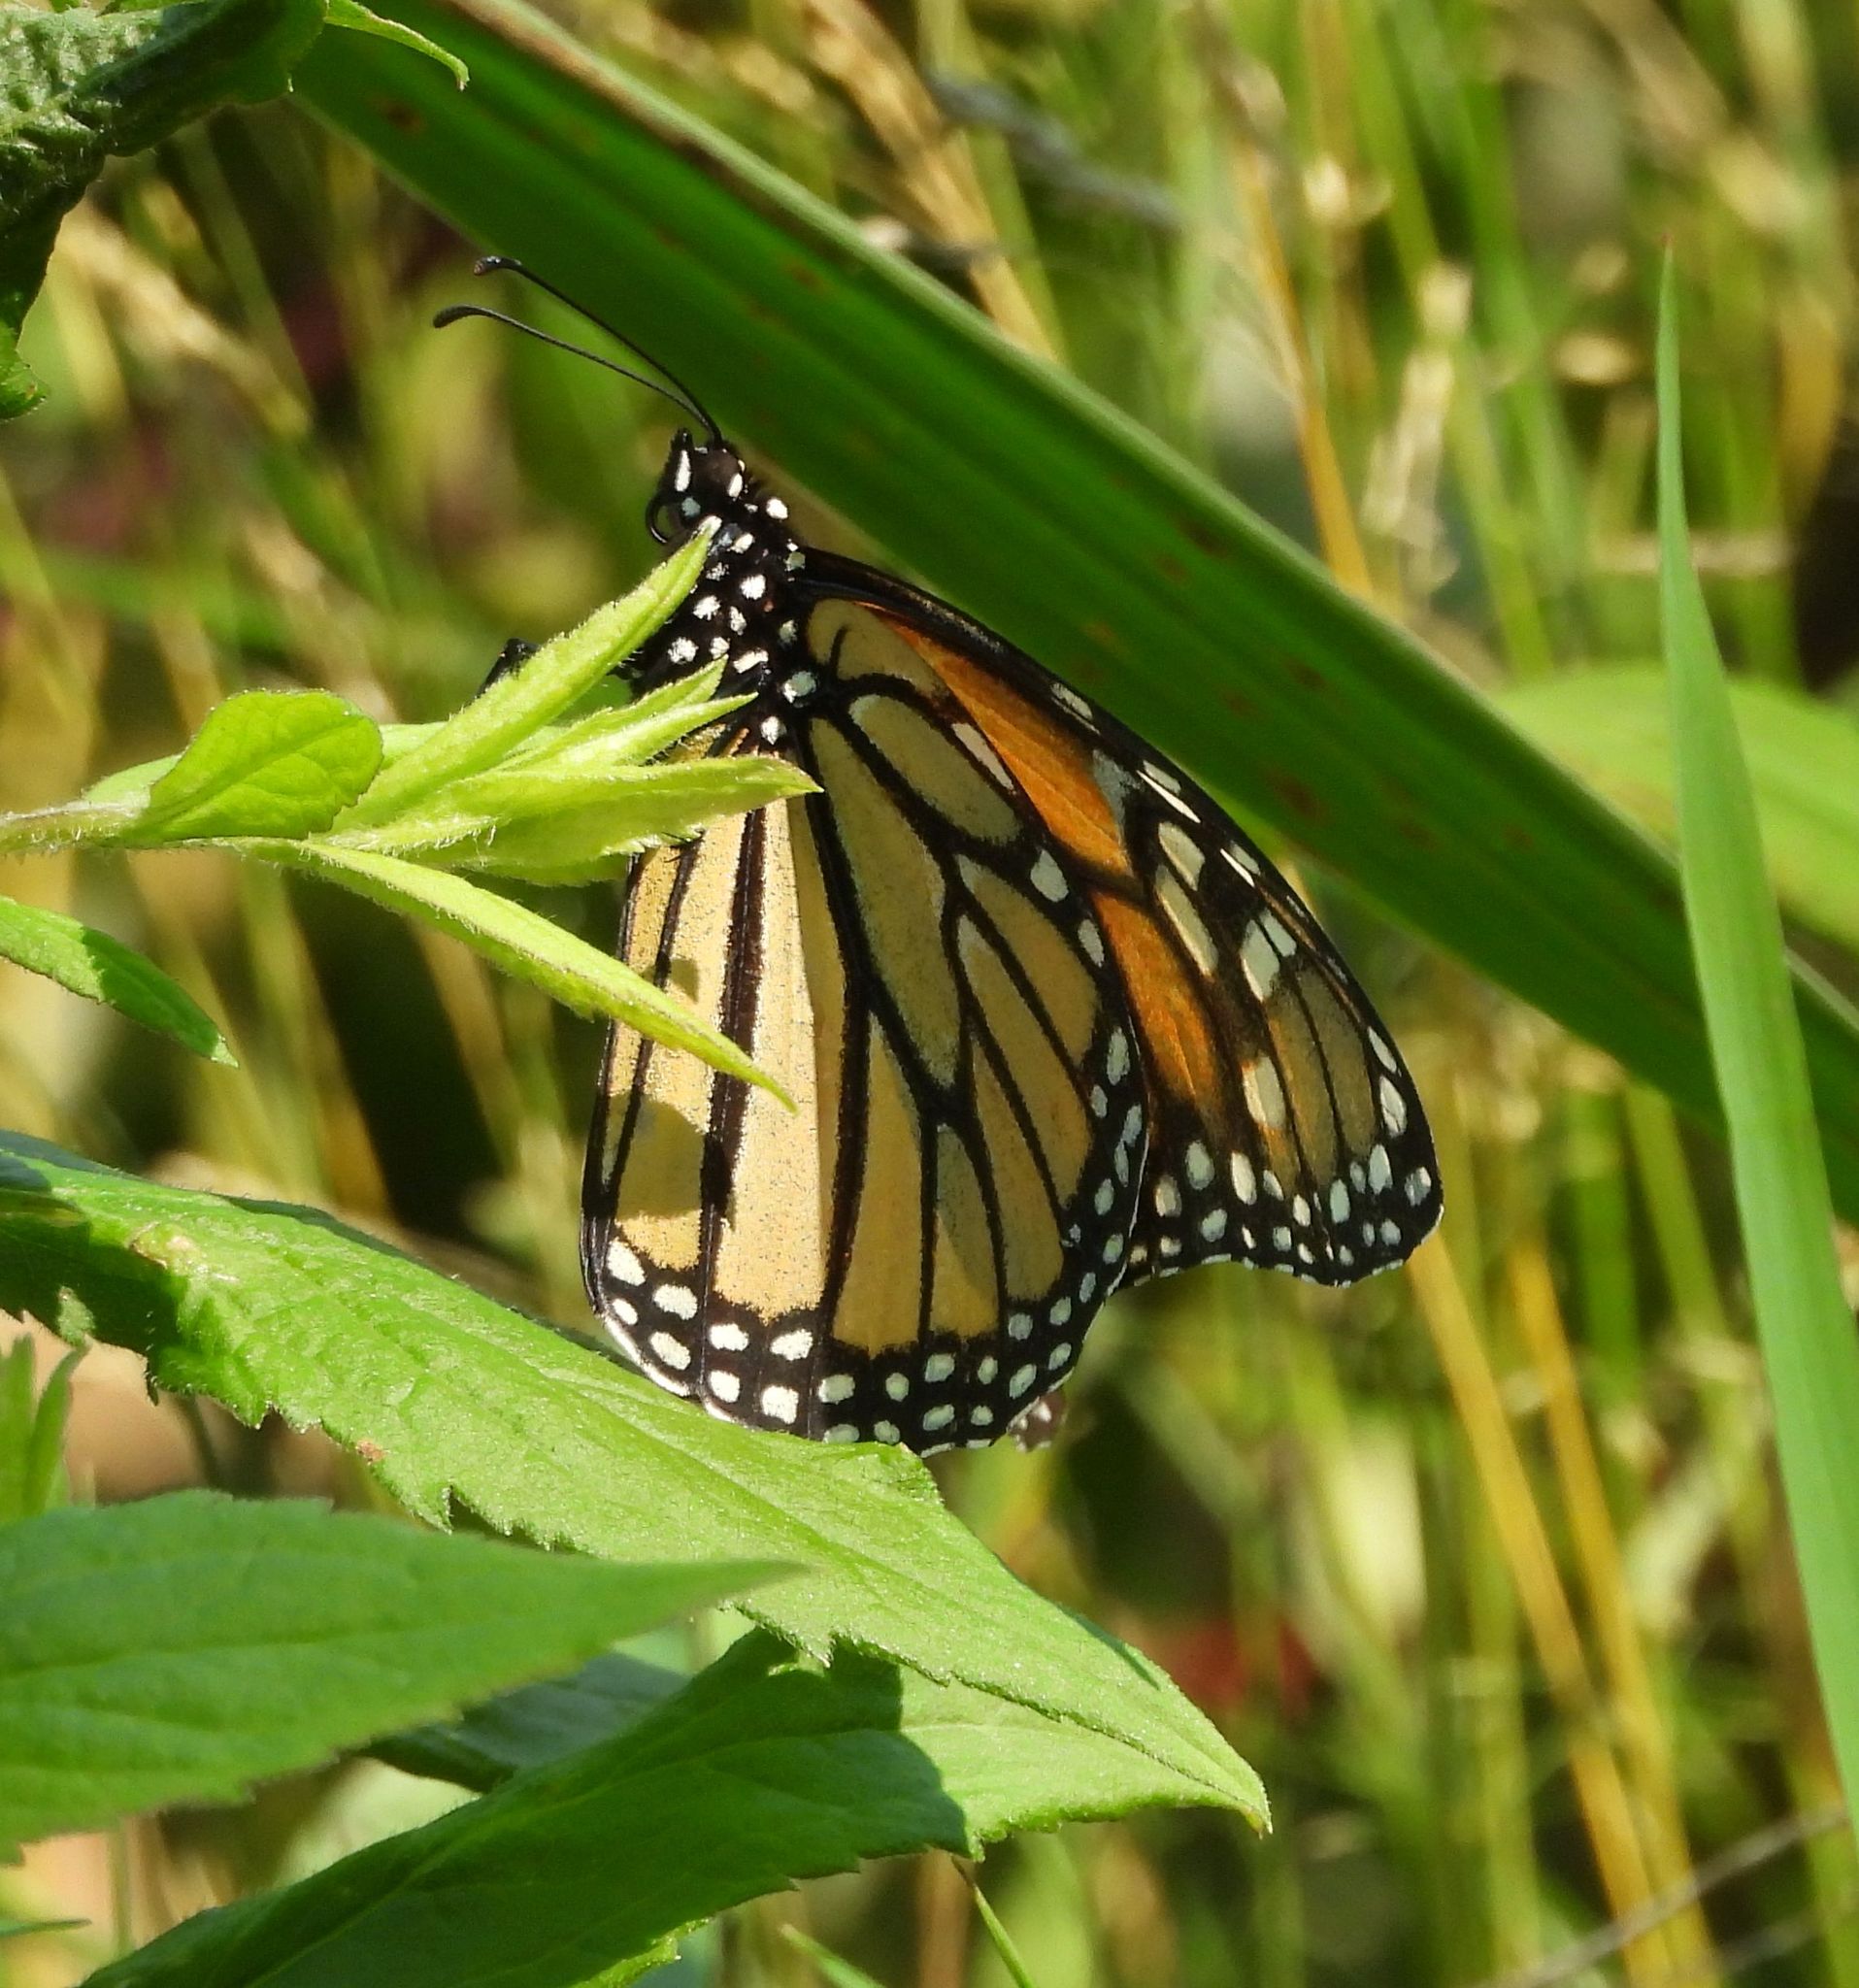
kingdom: Animalia
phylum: Arthropoda
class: Insecta
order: Lepidoptera
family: Nymphalidae
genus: Danaus
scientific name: Danaus plexippus
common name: Monarch
